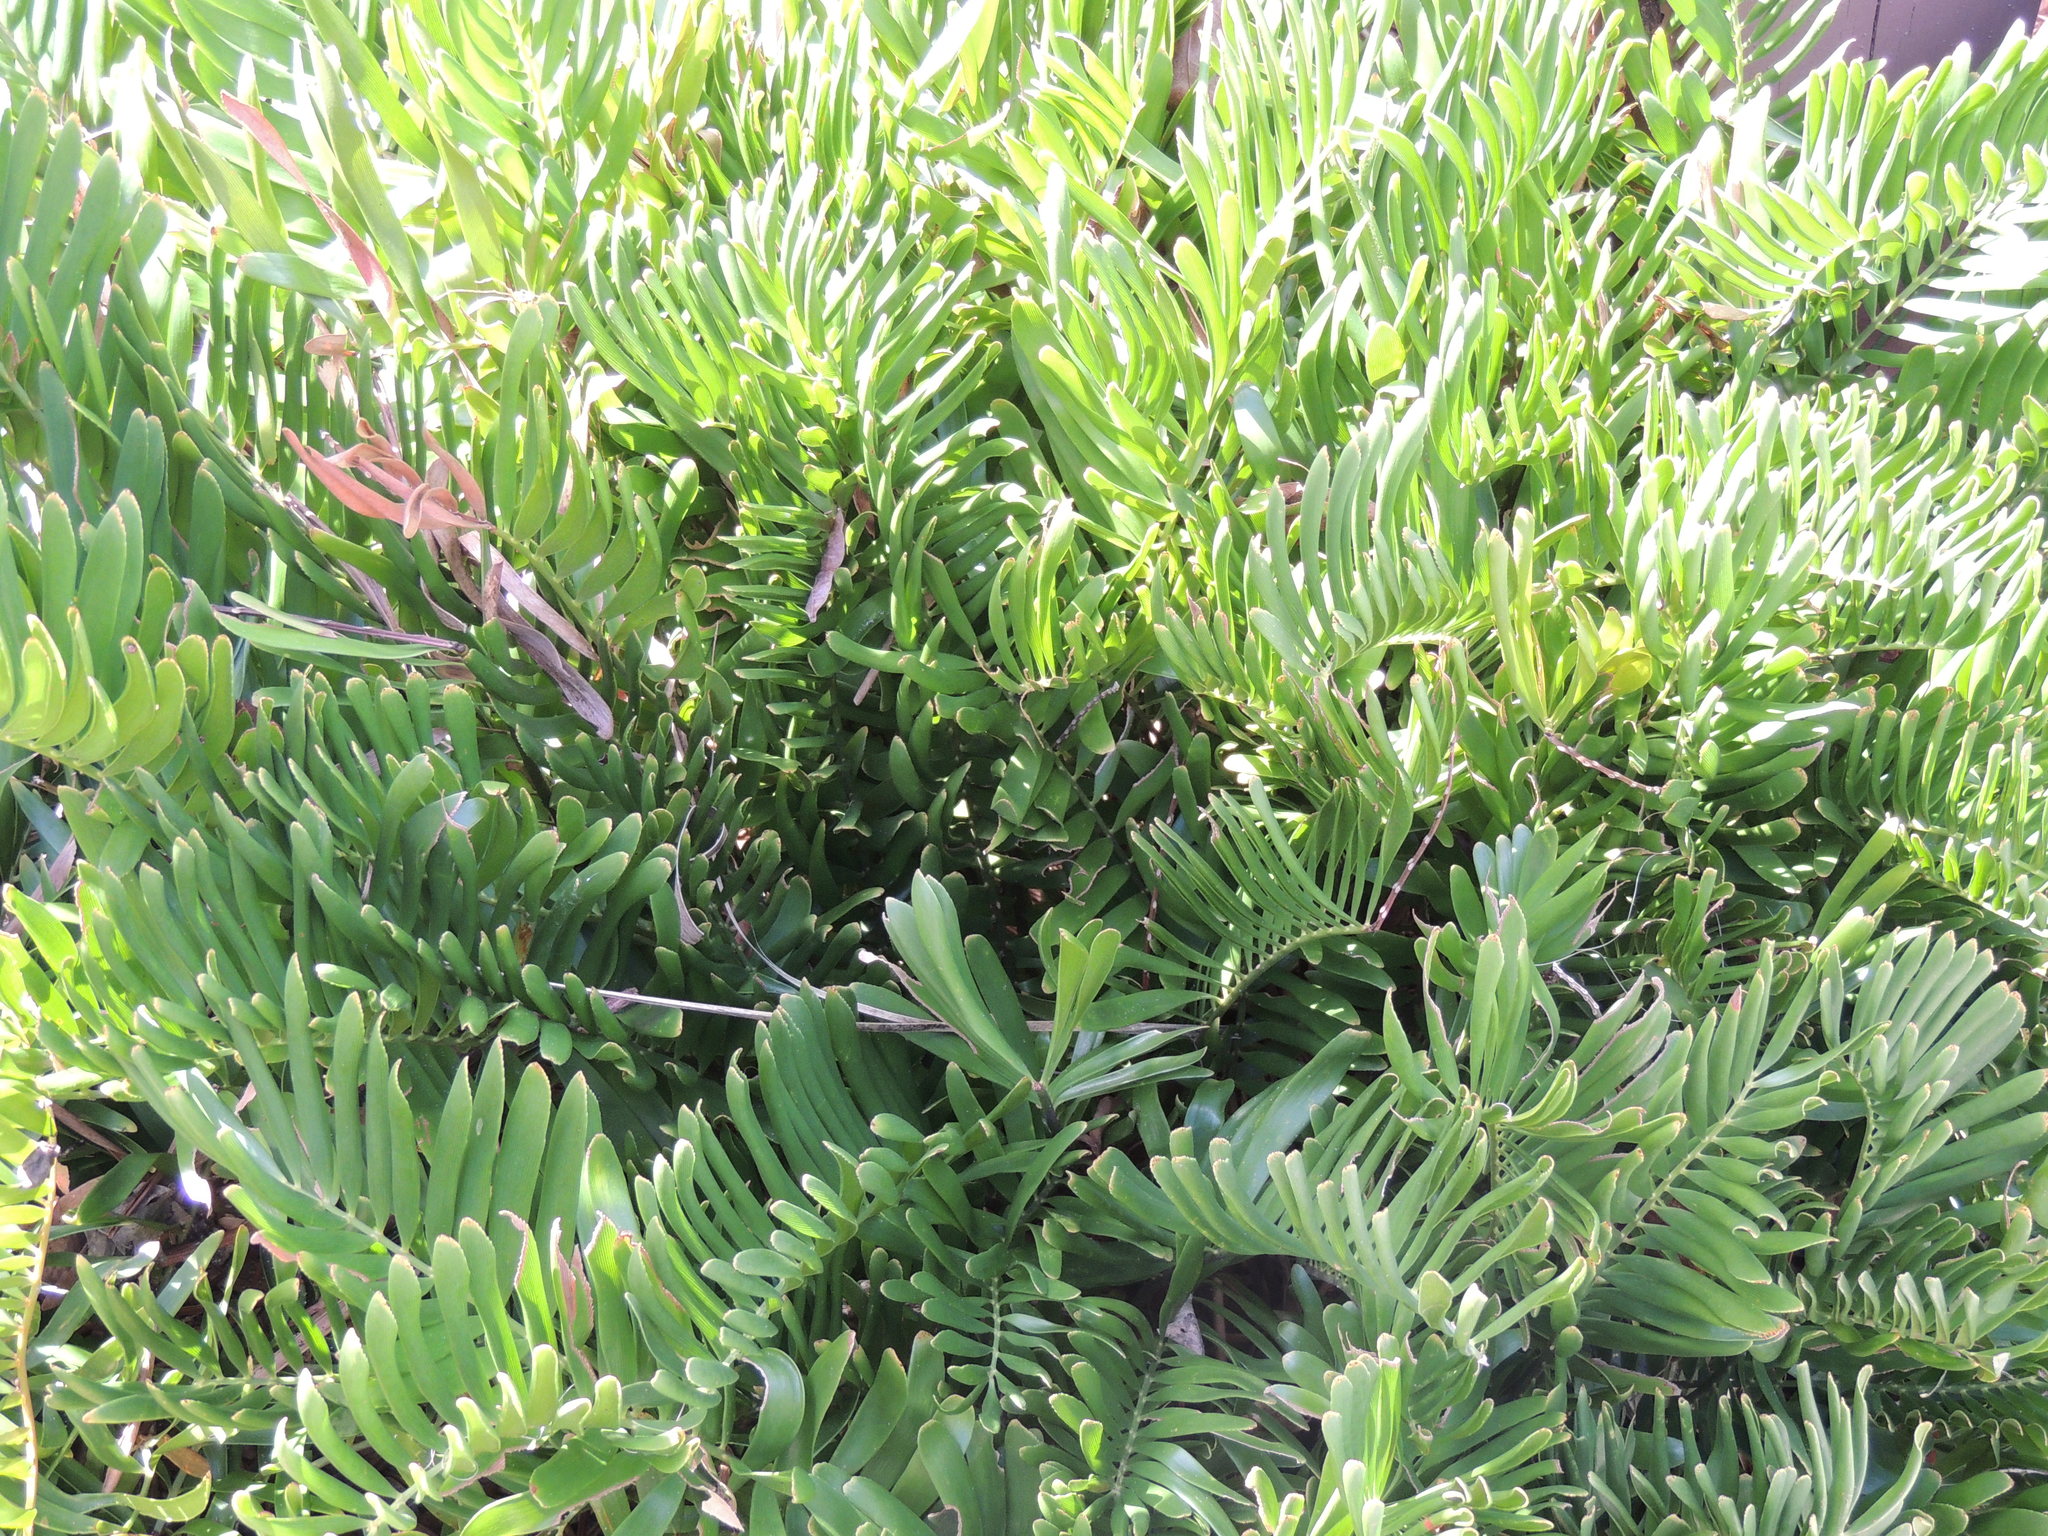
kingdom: Plantae
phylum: Tracheophyta
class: Cycadopsida
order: Cycadales
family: Zamiaceae
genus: Zamia
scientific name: Zamia integrifolia
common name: Florida arrowroot
